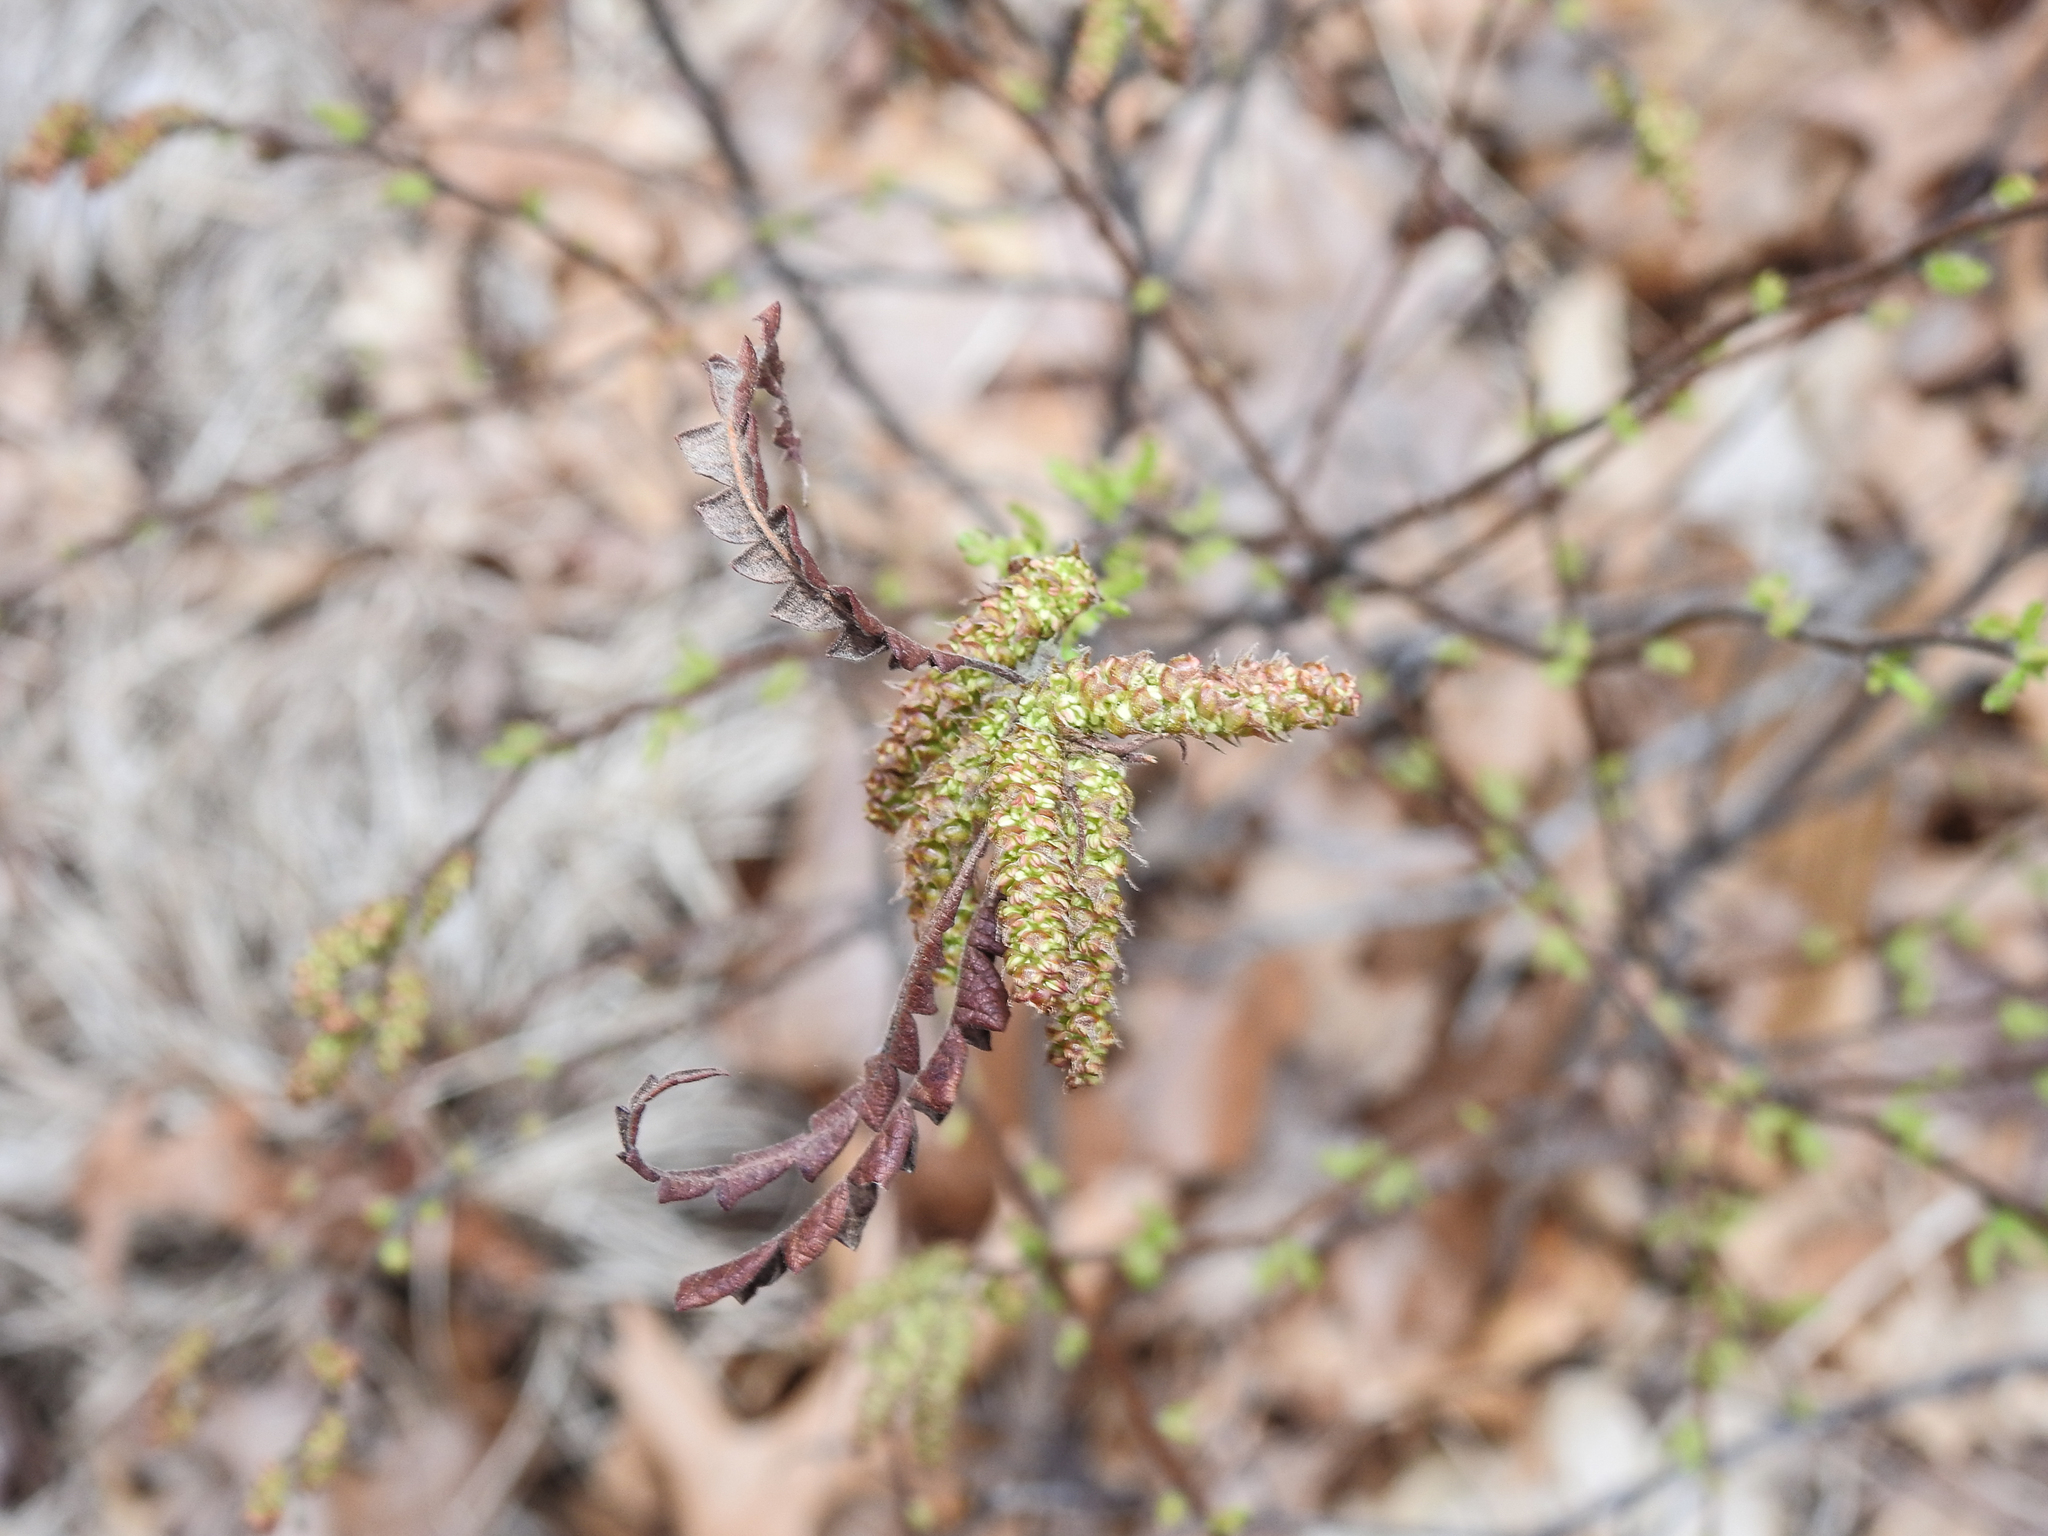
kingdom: Plantae
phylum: Tracheophyta
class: Magnoliopsida
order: Fagales
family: Myricaceae
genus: Comptonia
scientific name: Comptonia peregrina
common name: Sweet-fern
